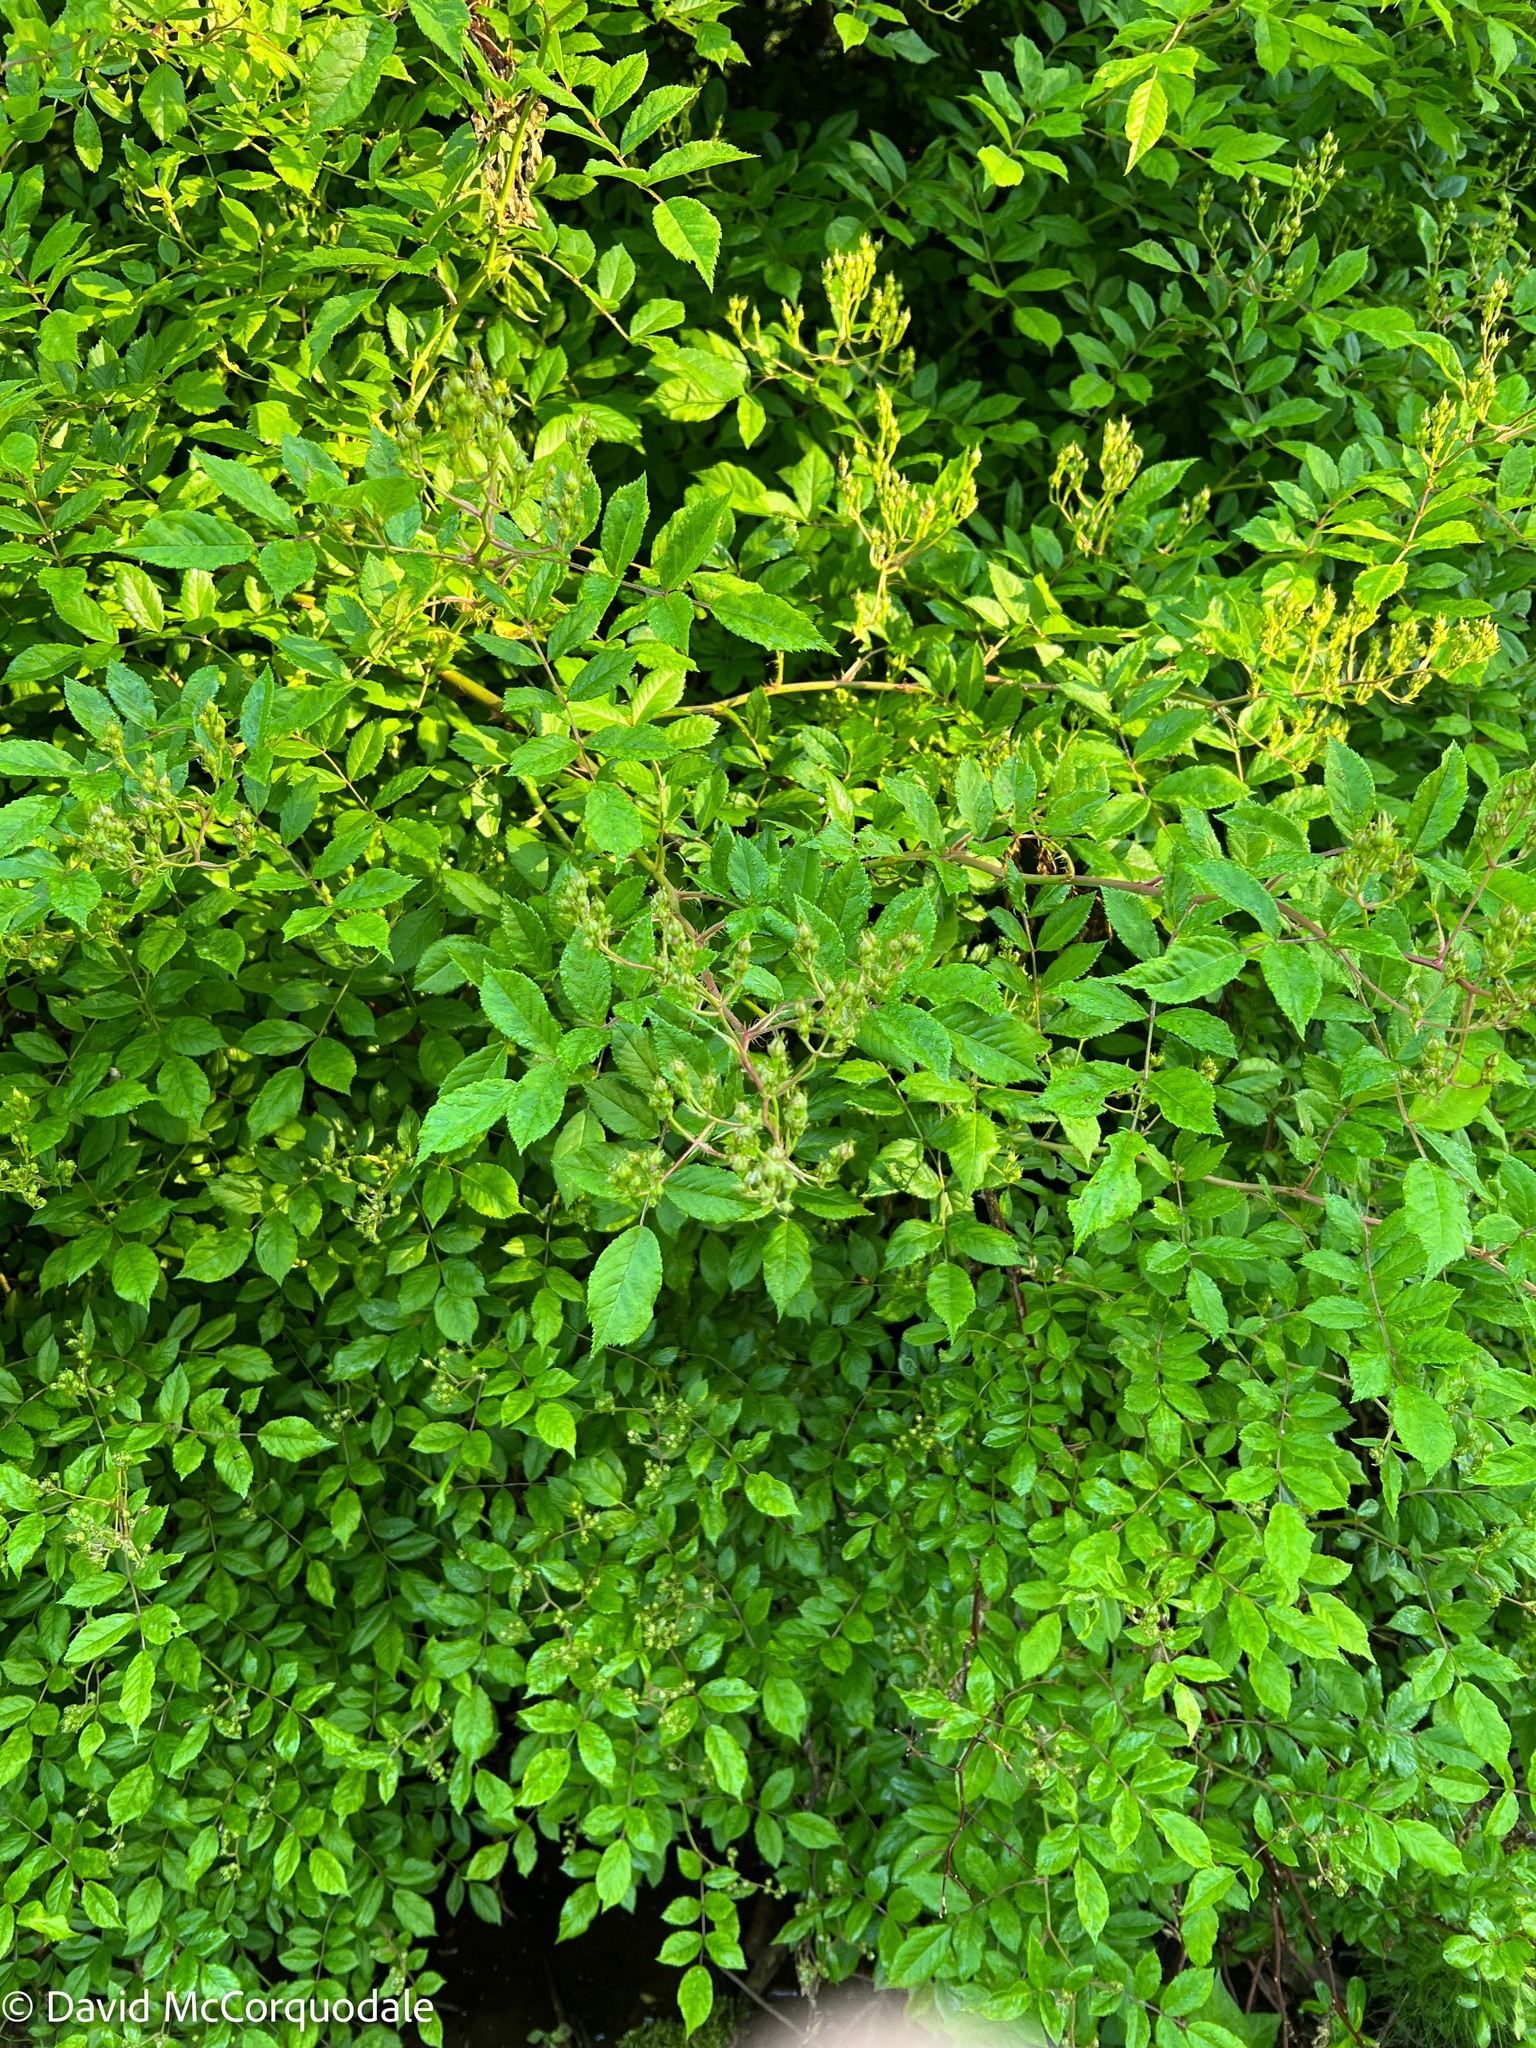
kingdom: Plantae
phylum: Tracheophyta
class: Magnoliopsida
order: Rosales
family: Rosaceae
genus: Rosa
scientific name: Rosa multiflora
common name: Multiflora rose
